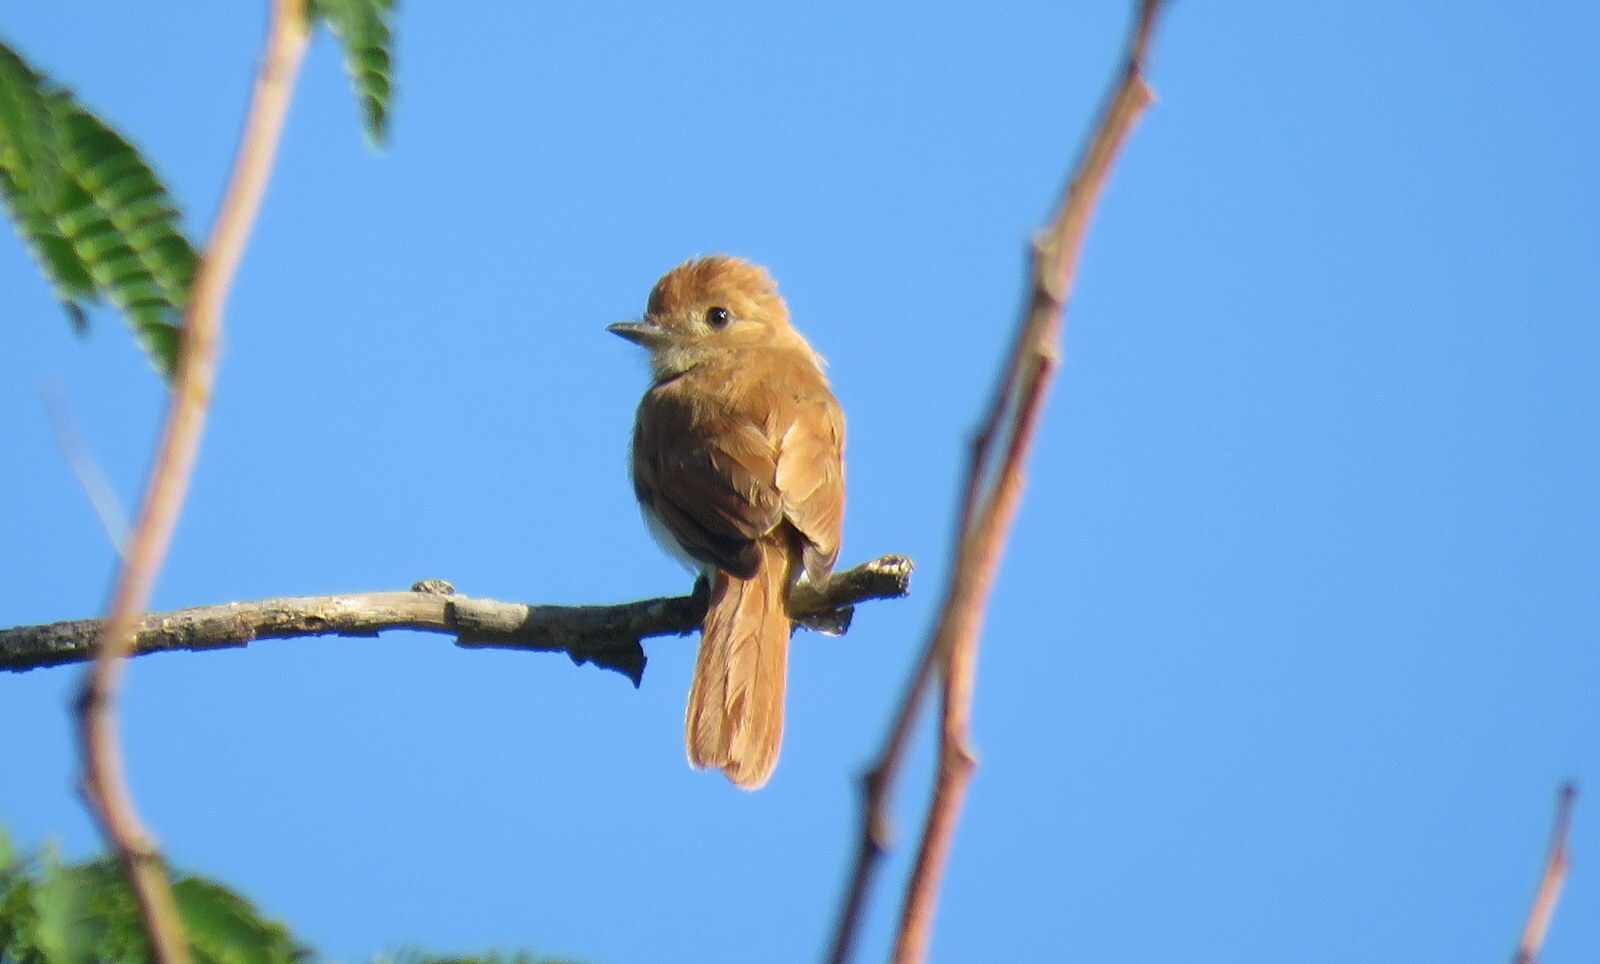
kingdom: Animalia
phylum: Chordata
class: Aves
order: Passeriformes
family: Tyrannidae
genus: Casiornis
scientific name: Casiornis rufus
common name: Rufous casiornis
